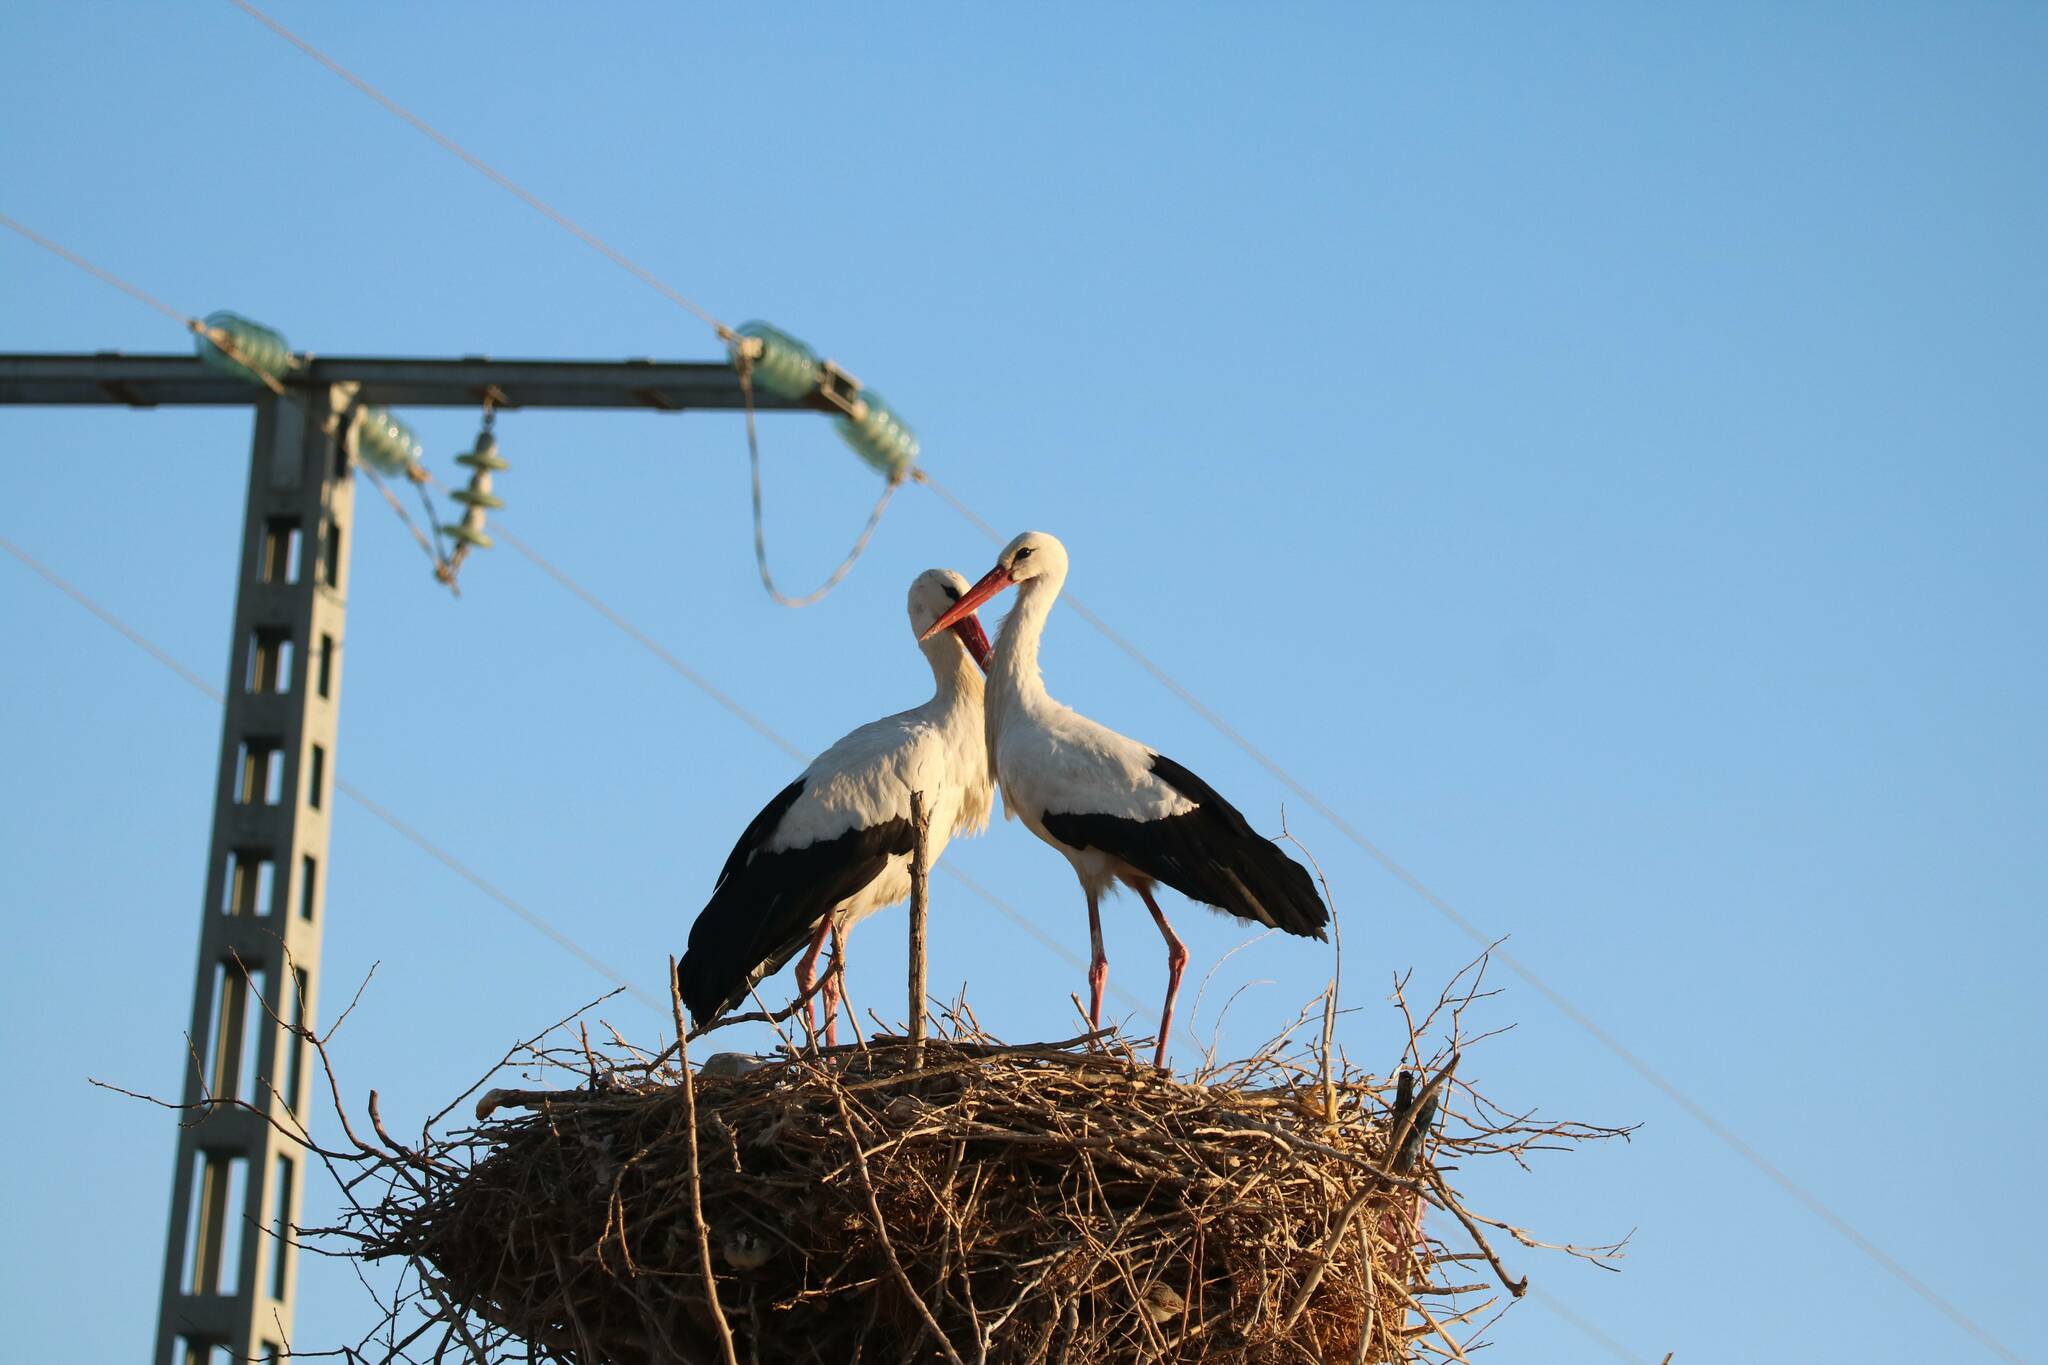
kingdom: Animalia
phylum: Chordata
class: Aves
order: Ciconiiformes
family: Ciconiidae
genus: Ciconia
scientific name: Ciconia ciconia
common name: White stork
